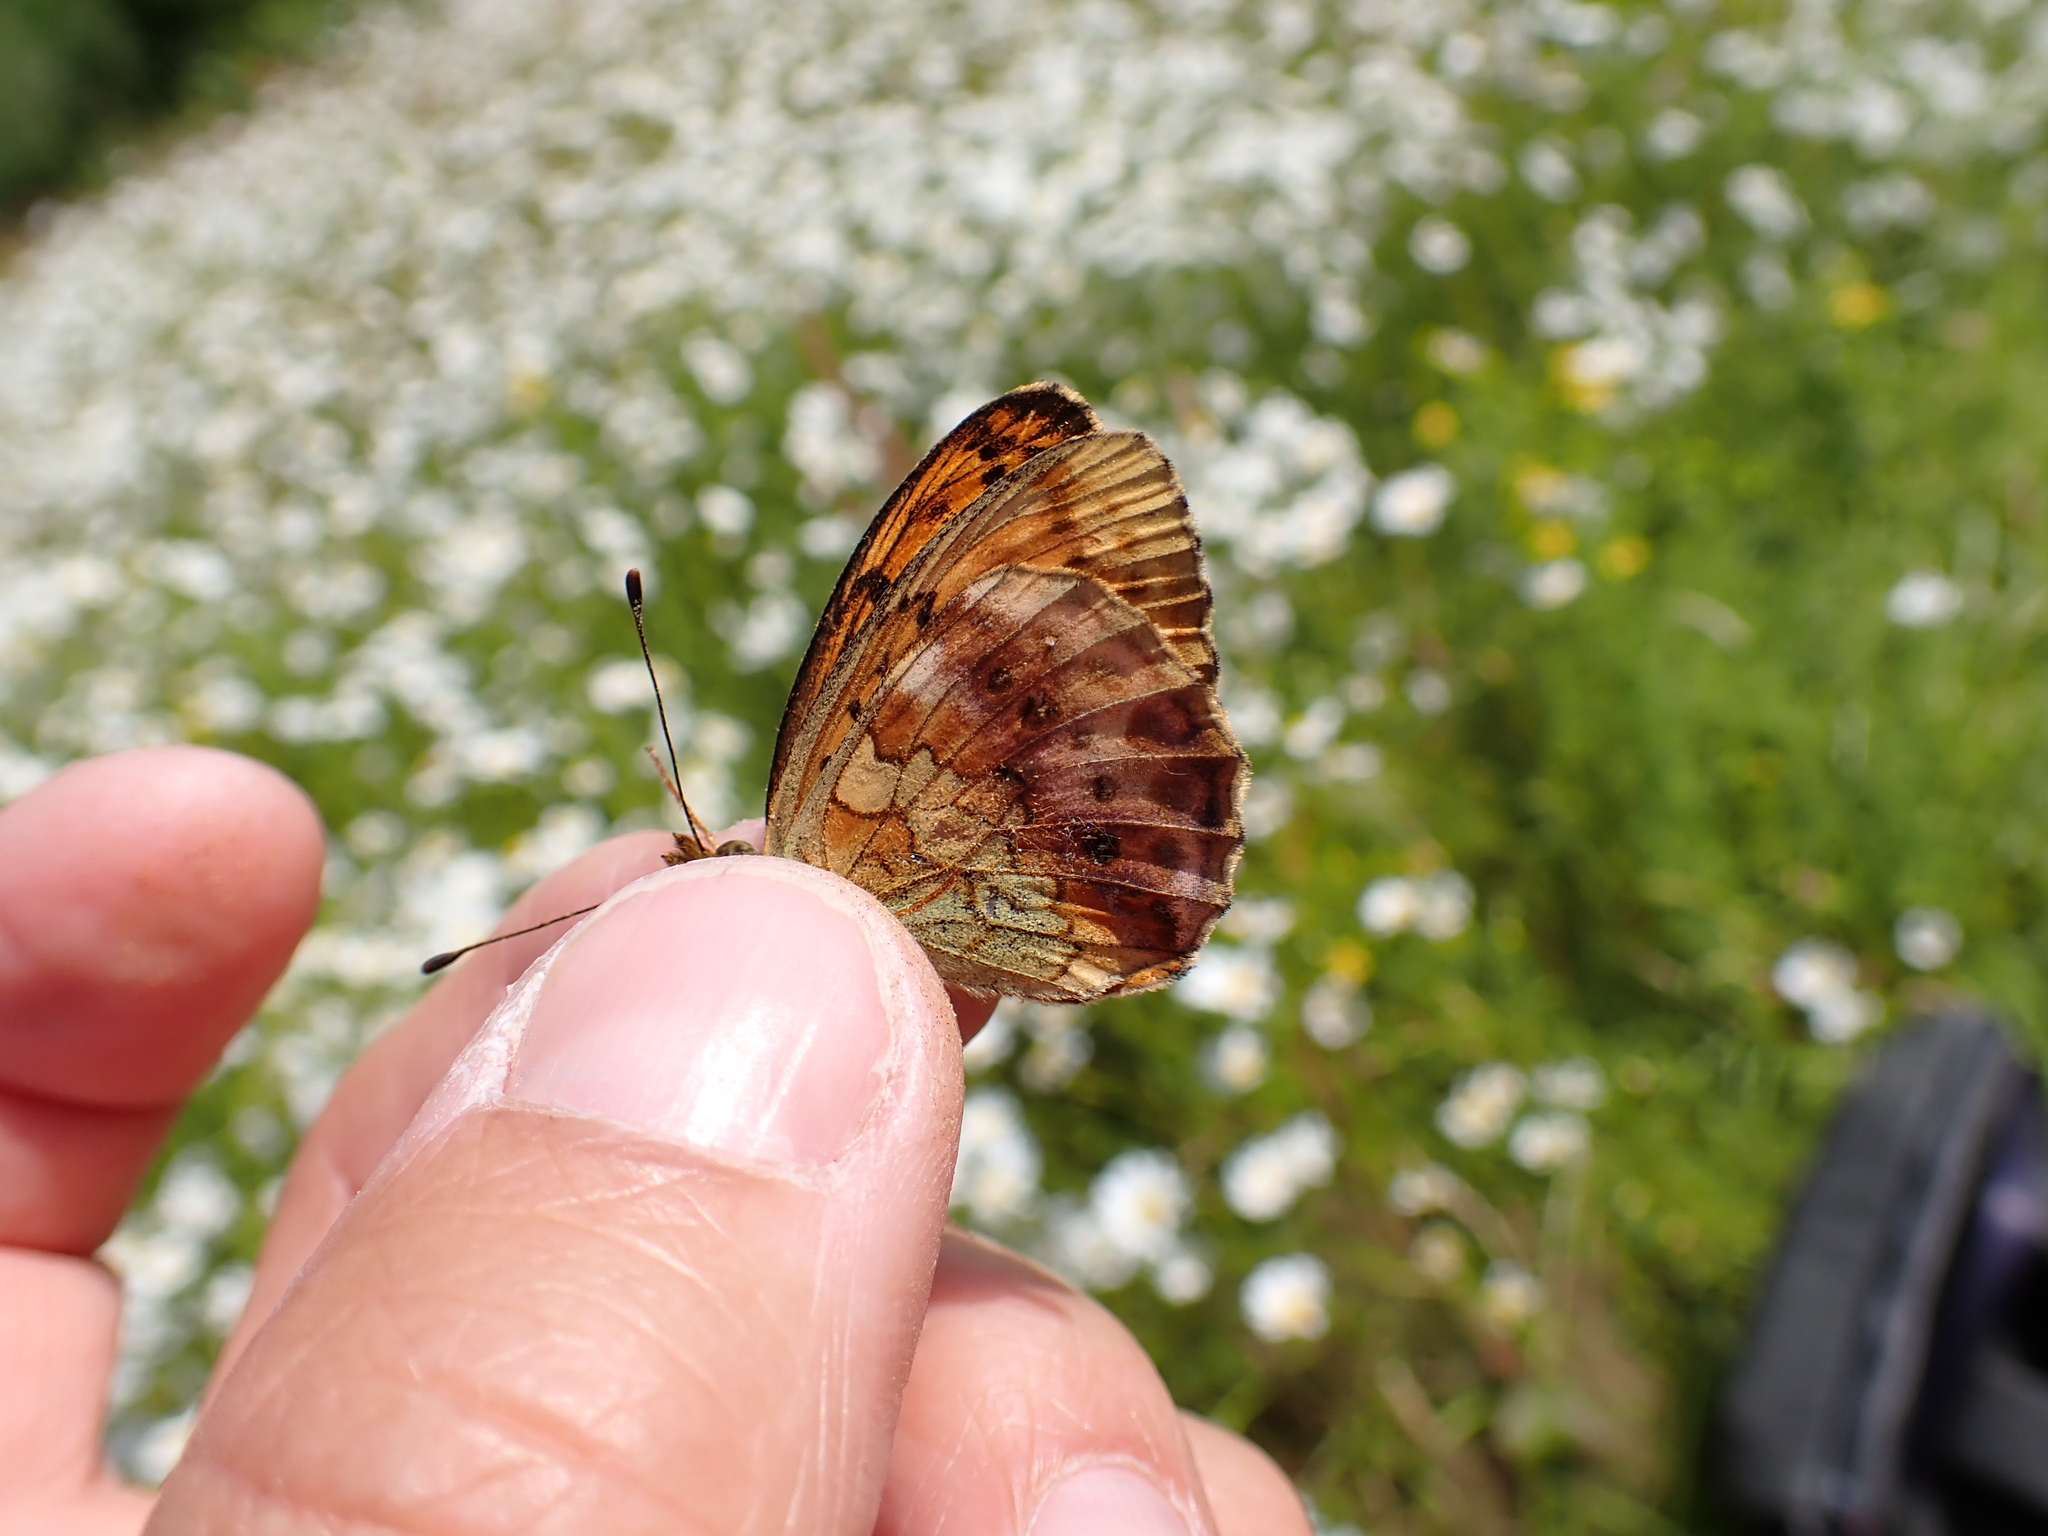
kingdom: Animalia
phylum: Arthropoda
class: Insecta
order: Lepidoptera
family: Nymphalidae
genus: Brenthis
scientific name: Brenthis daphne
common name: Marbled fritillary
